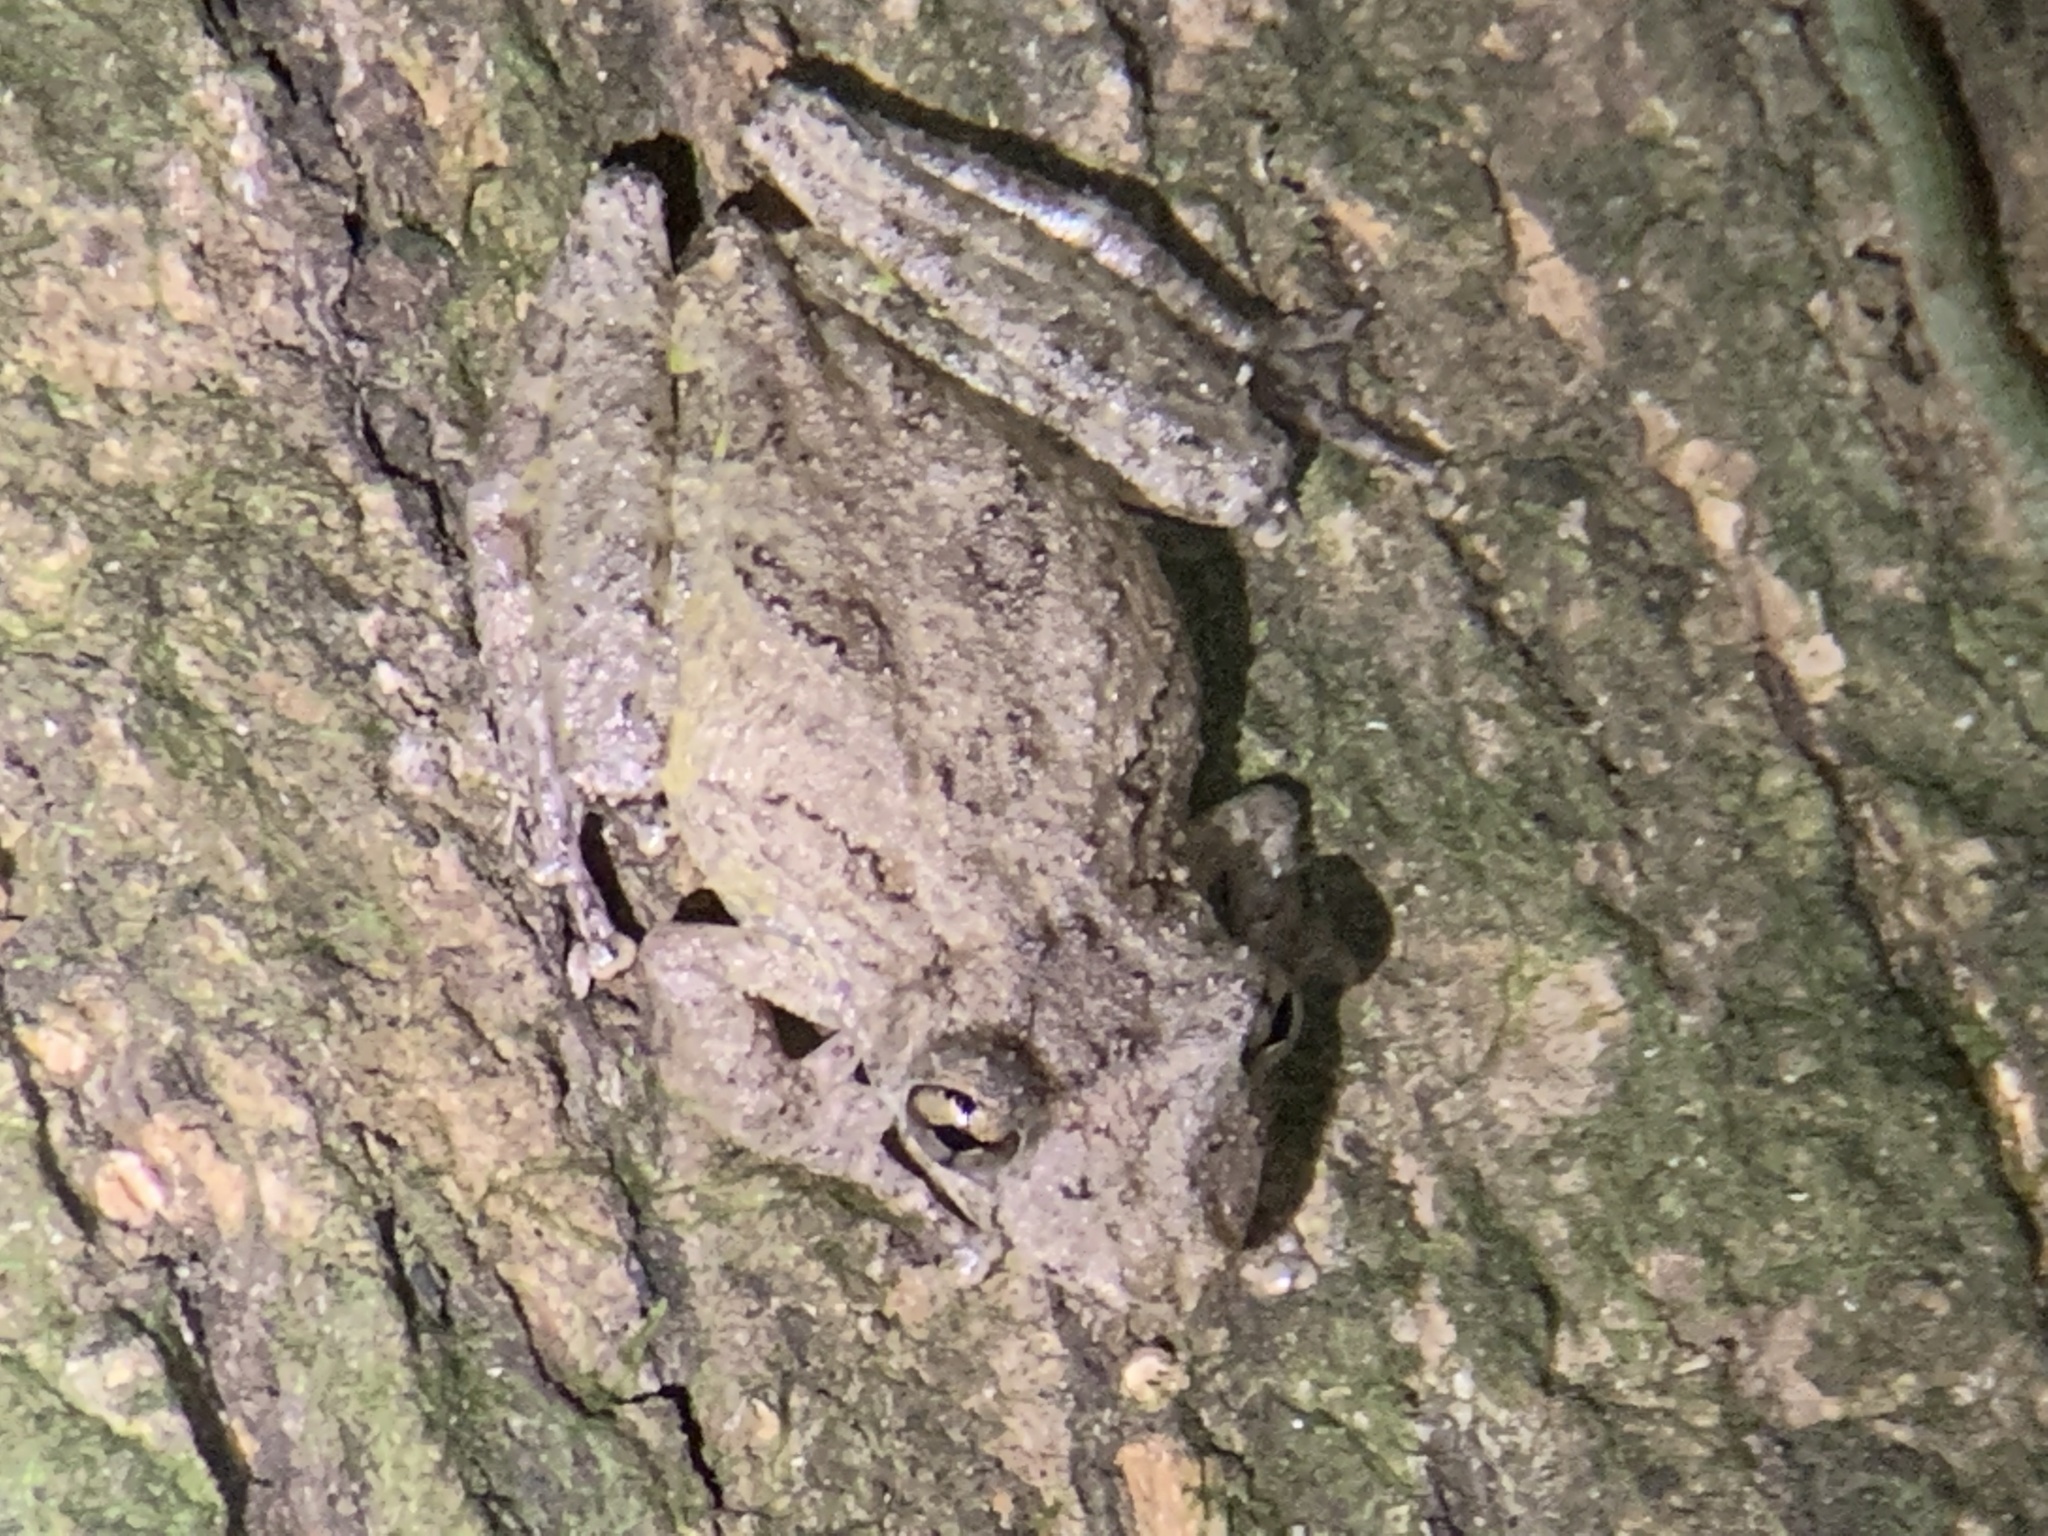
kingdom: Animalia
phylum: Chordata
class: Amphibia
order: Anura
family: Hylidae
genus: Scinax
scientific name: Scinax boulengeri
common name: Boulenger's snouted treefrog
